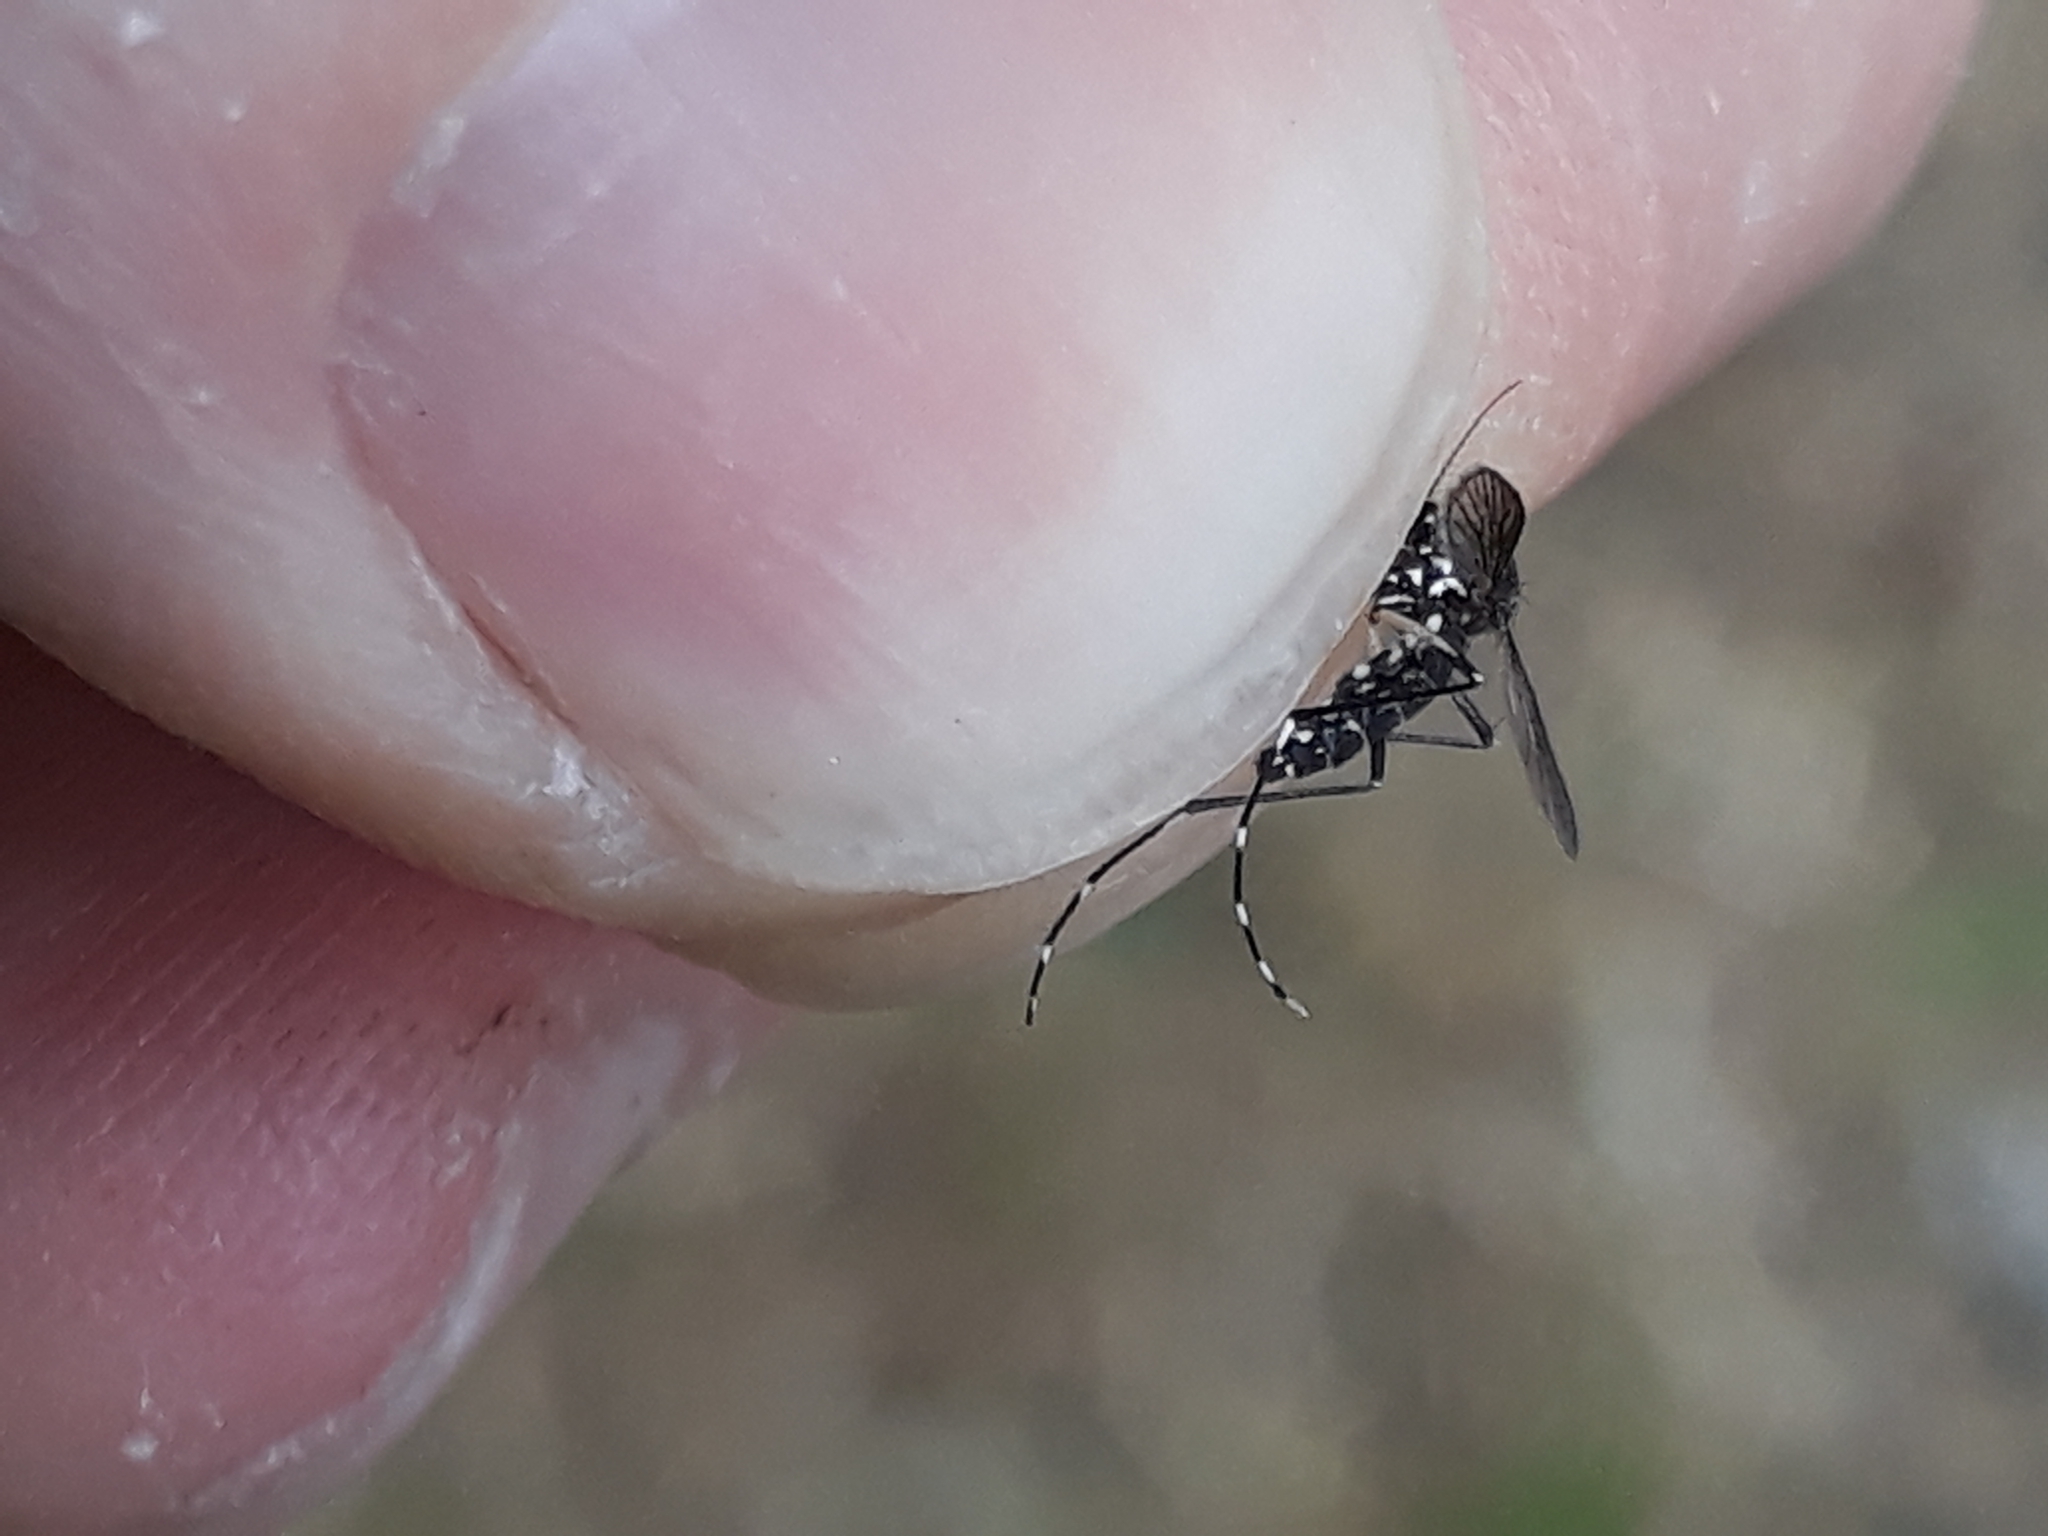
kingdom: Animalia
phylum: Arthropoda
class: Insecta
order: Diptera
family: Culicidae
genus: Aedes
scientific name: Aedes albopictus
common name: Tiger mosquito
